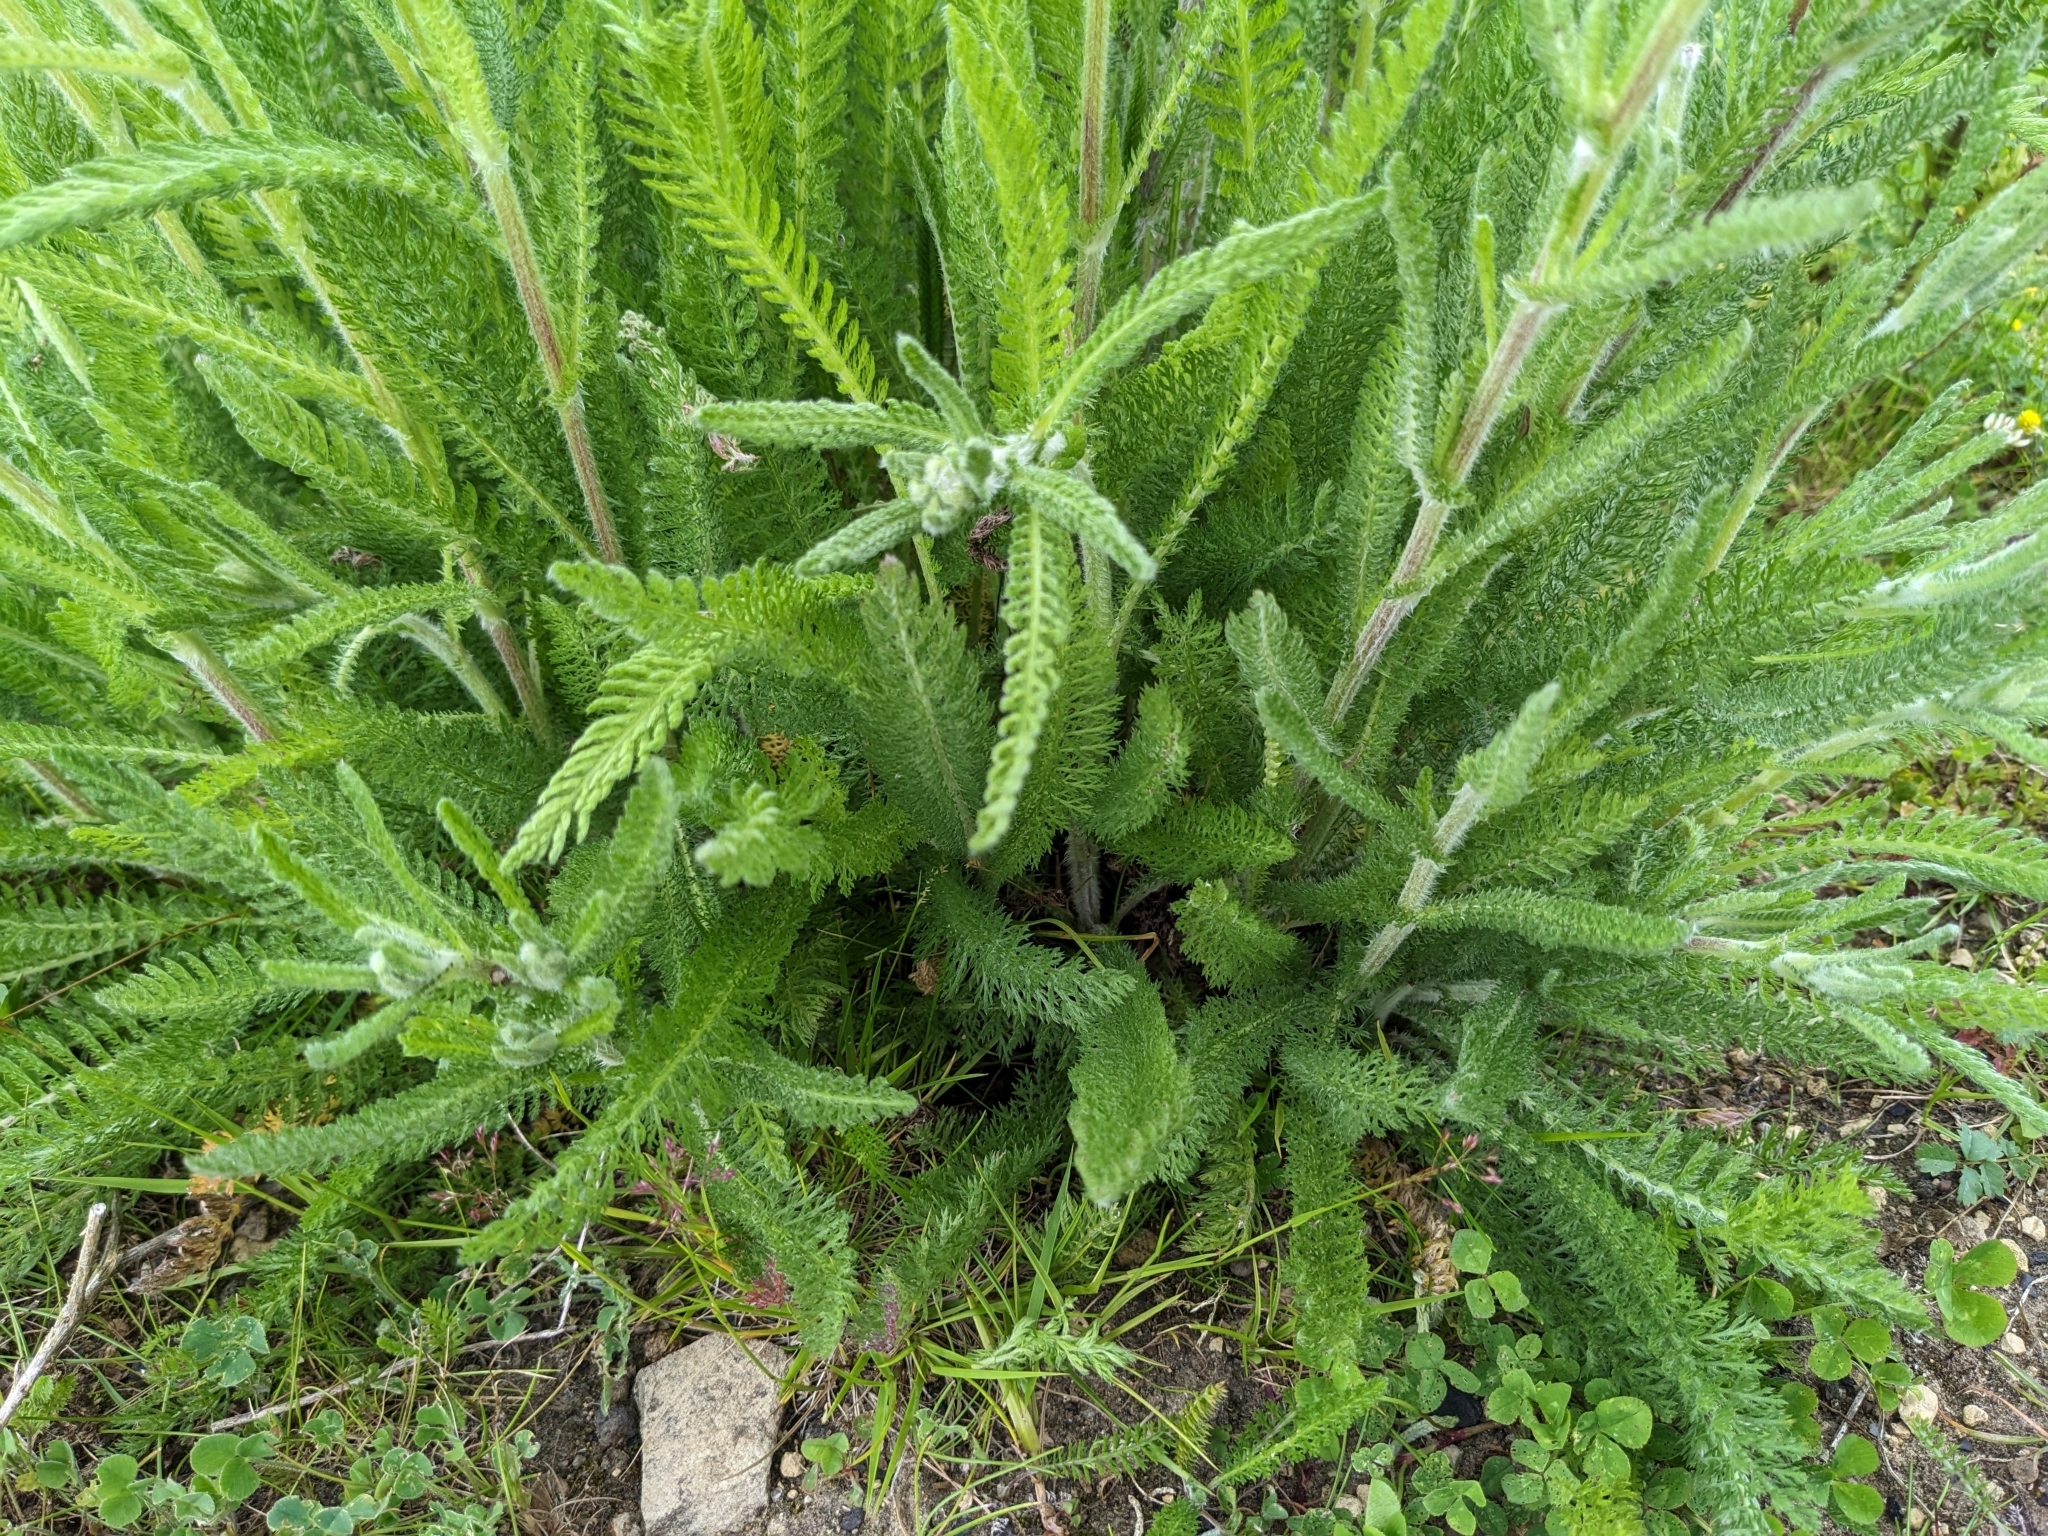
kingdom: Plantae
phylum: Tracheophyta
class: Magnoliopsida
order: Asterales
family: Asteraceae
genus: Achillea
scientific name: Achillea millefolium
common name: Yarrow
